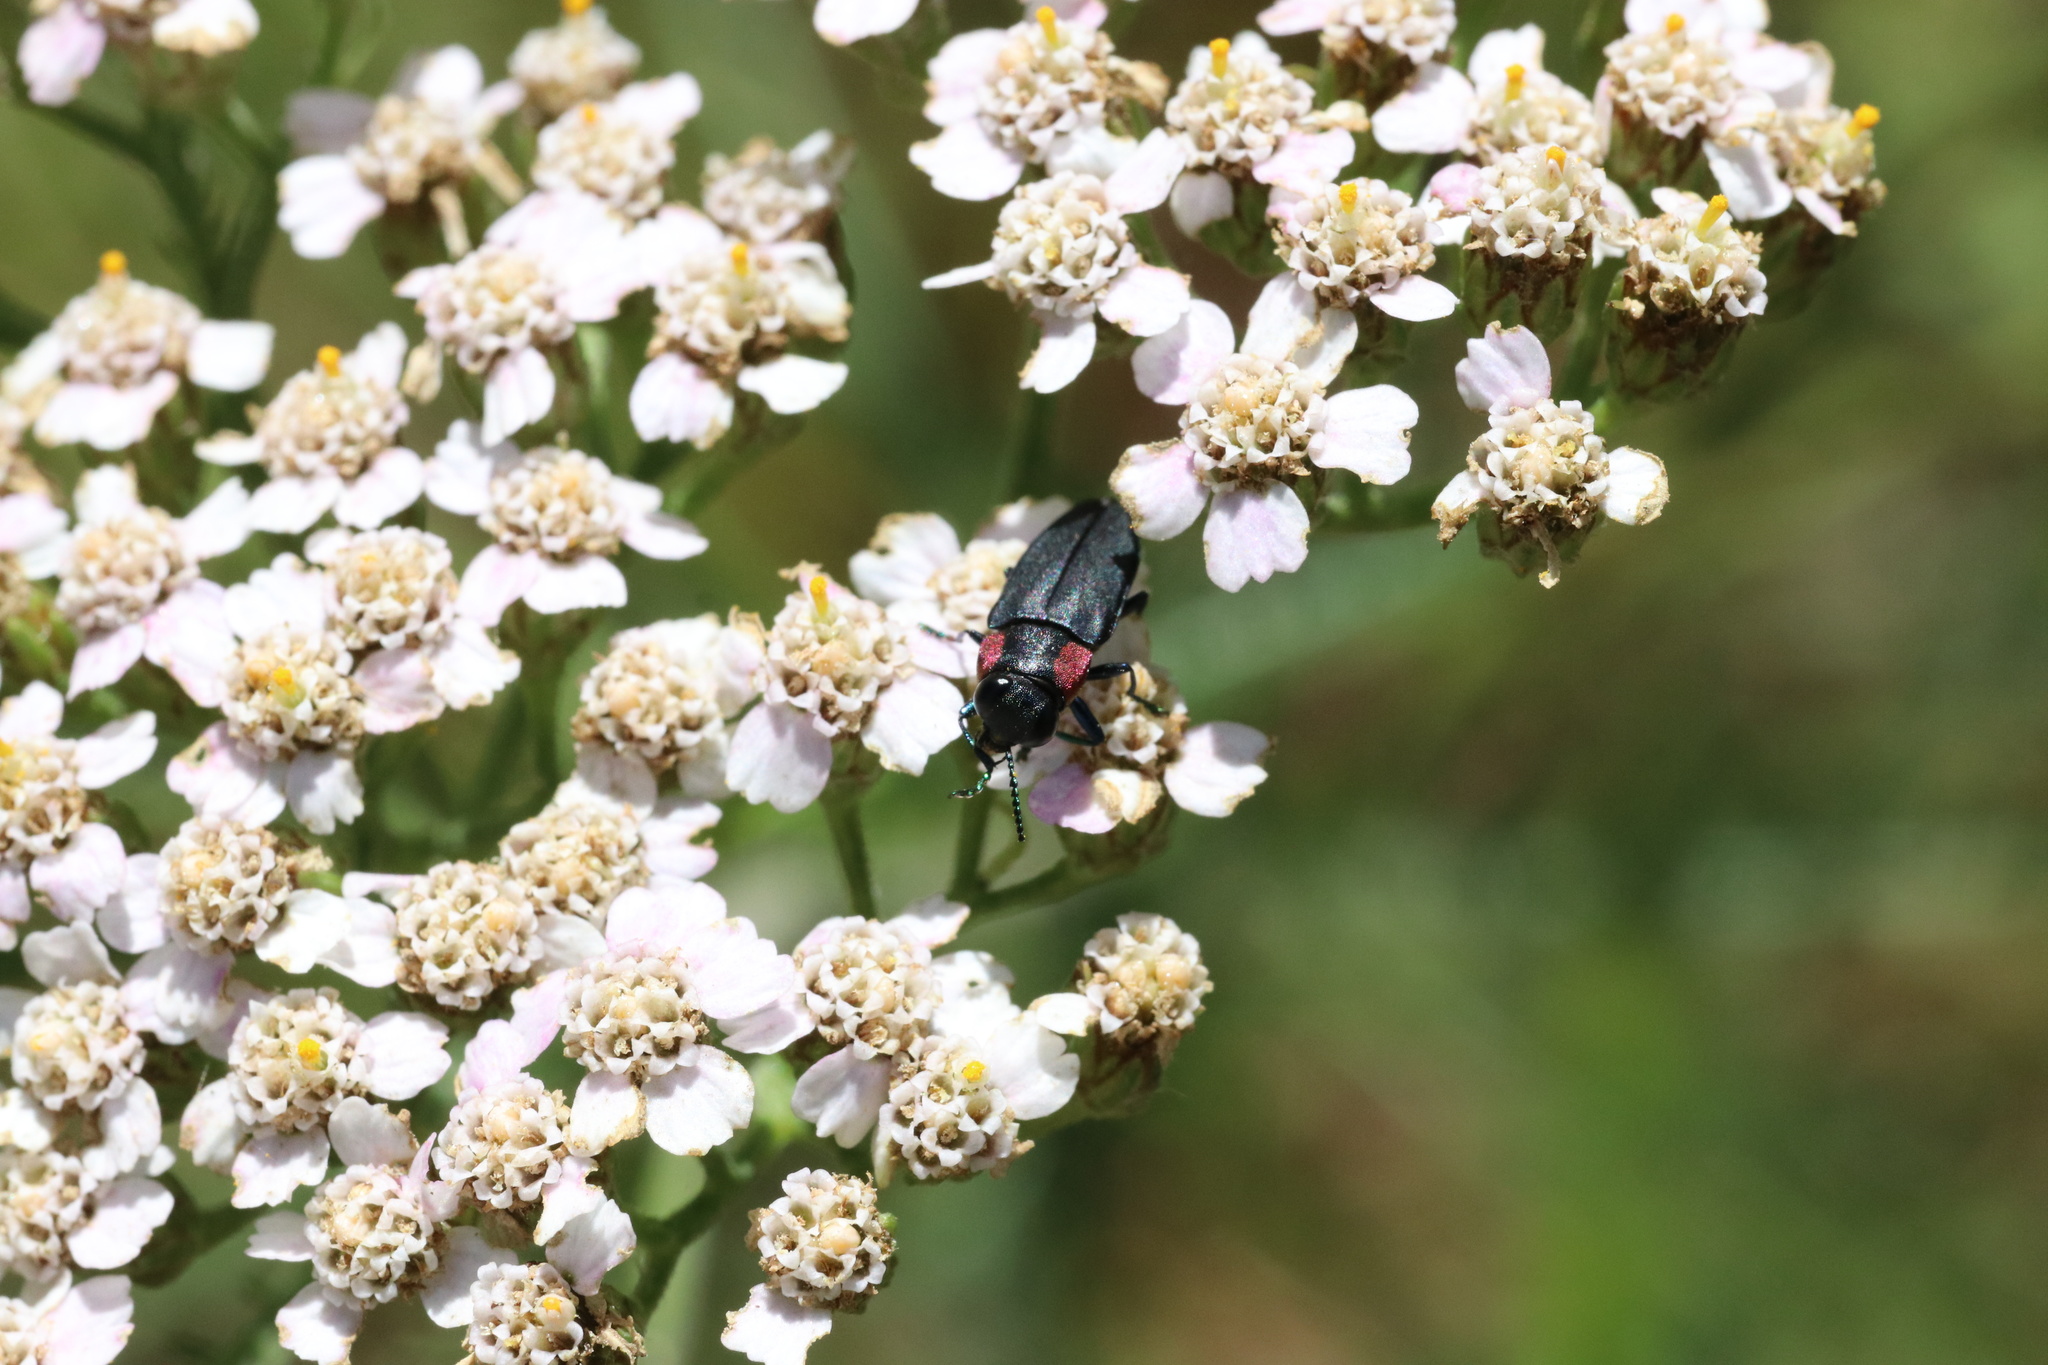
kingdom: Animalia
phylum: Arthropoda
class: Insecta
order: Coleoptera
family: Buprestidae
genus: Romanophora
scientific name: Romanophora verecunda
